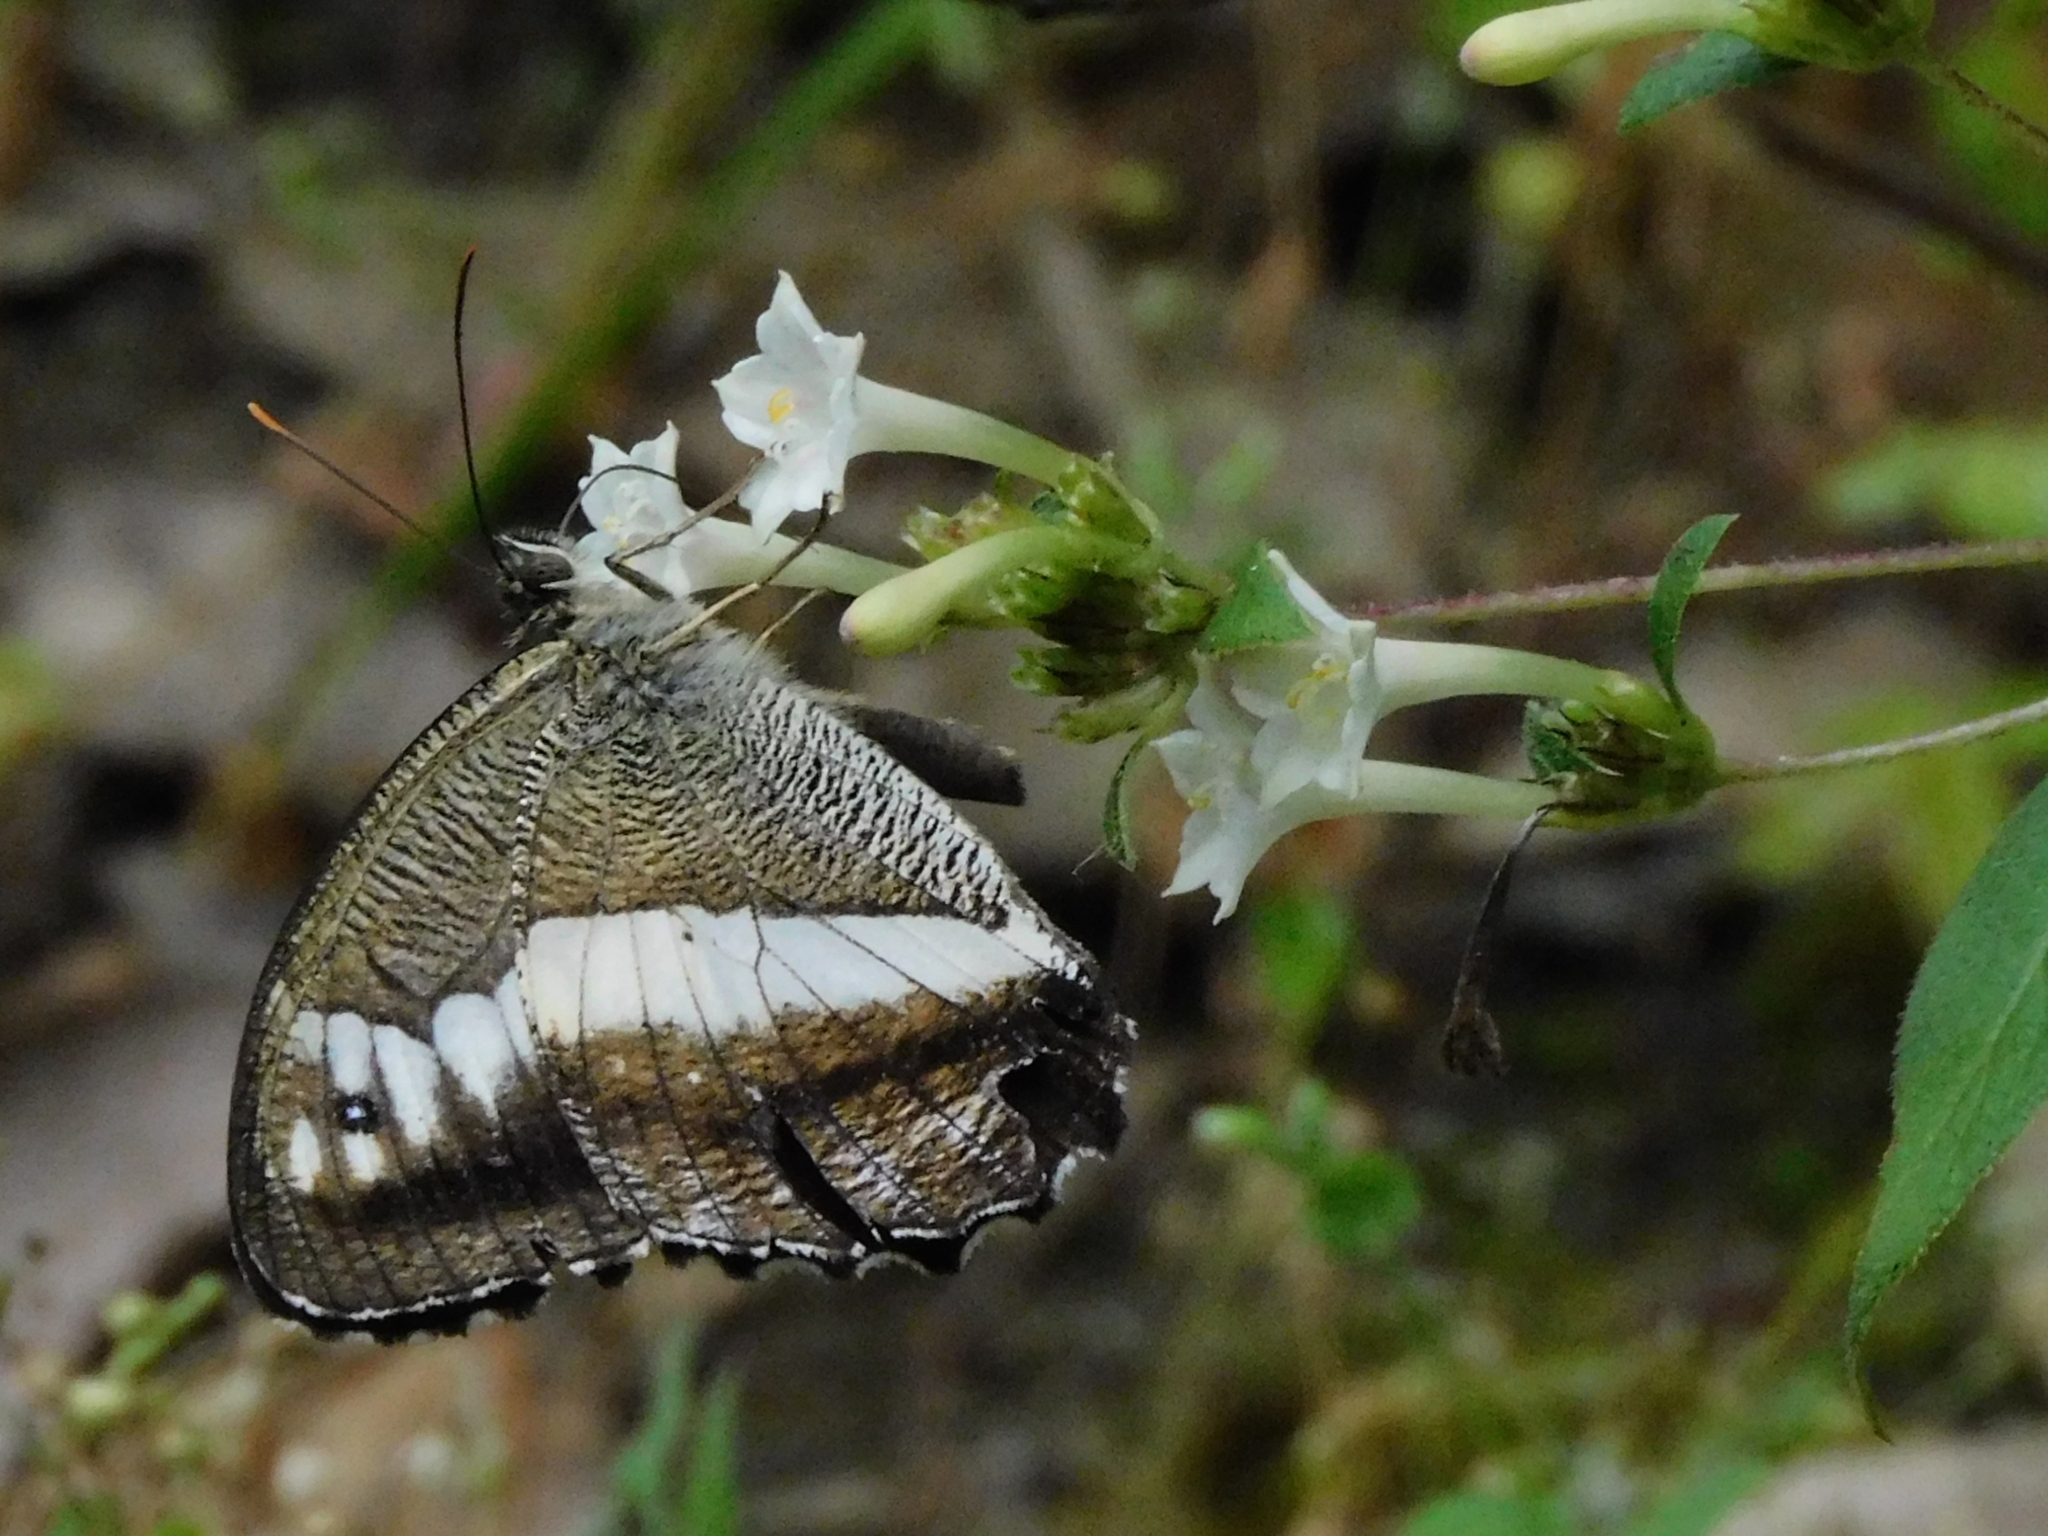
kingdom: Animalia
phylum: Arthropoda
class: Insecta
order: Lepidoptera
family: Nymphalidae
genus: Satyrus
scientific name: Satyrus
